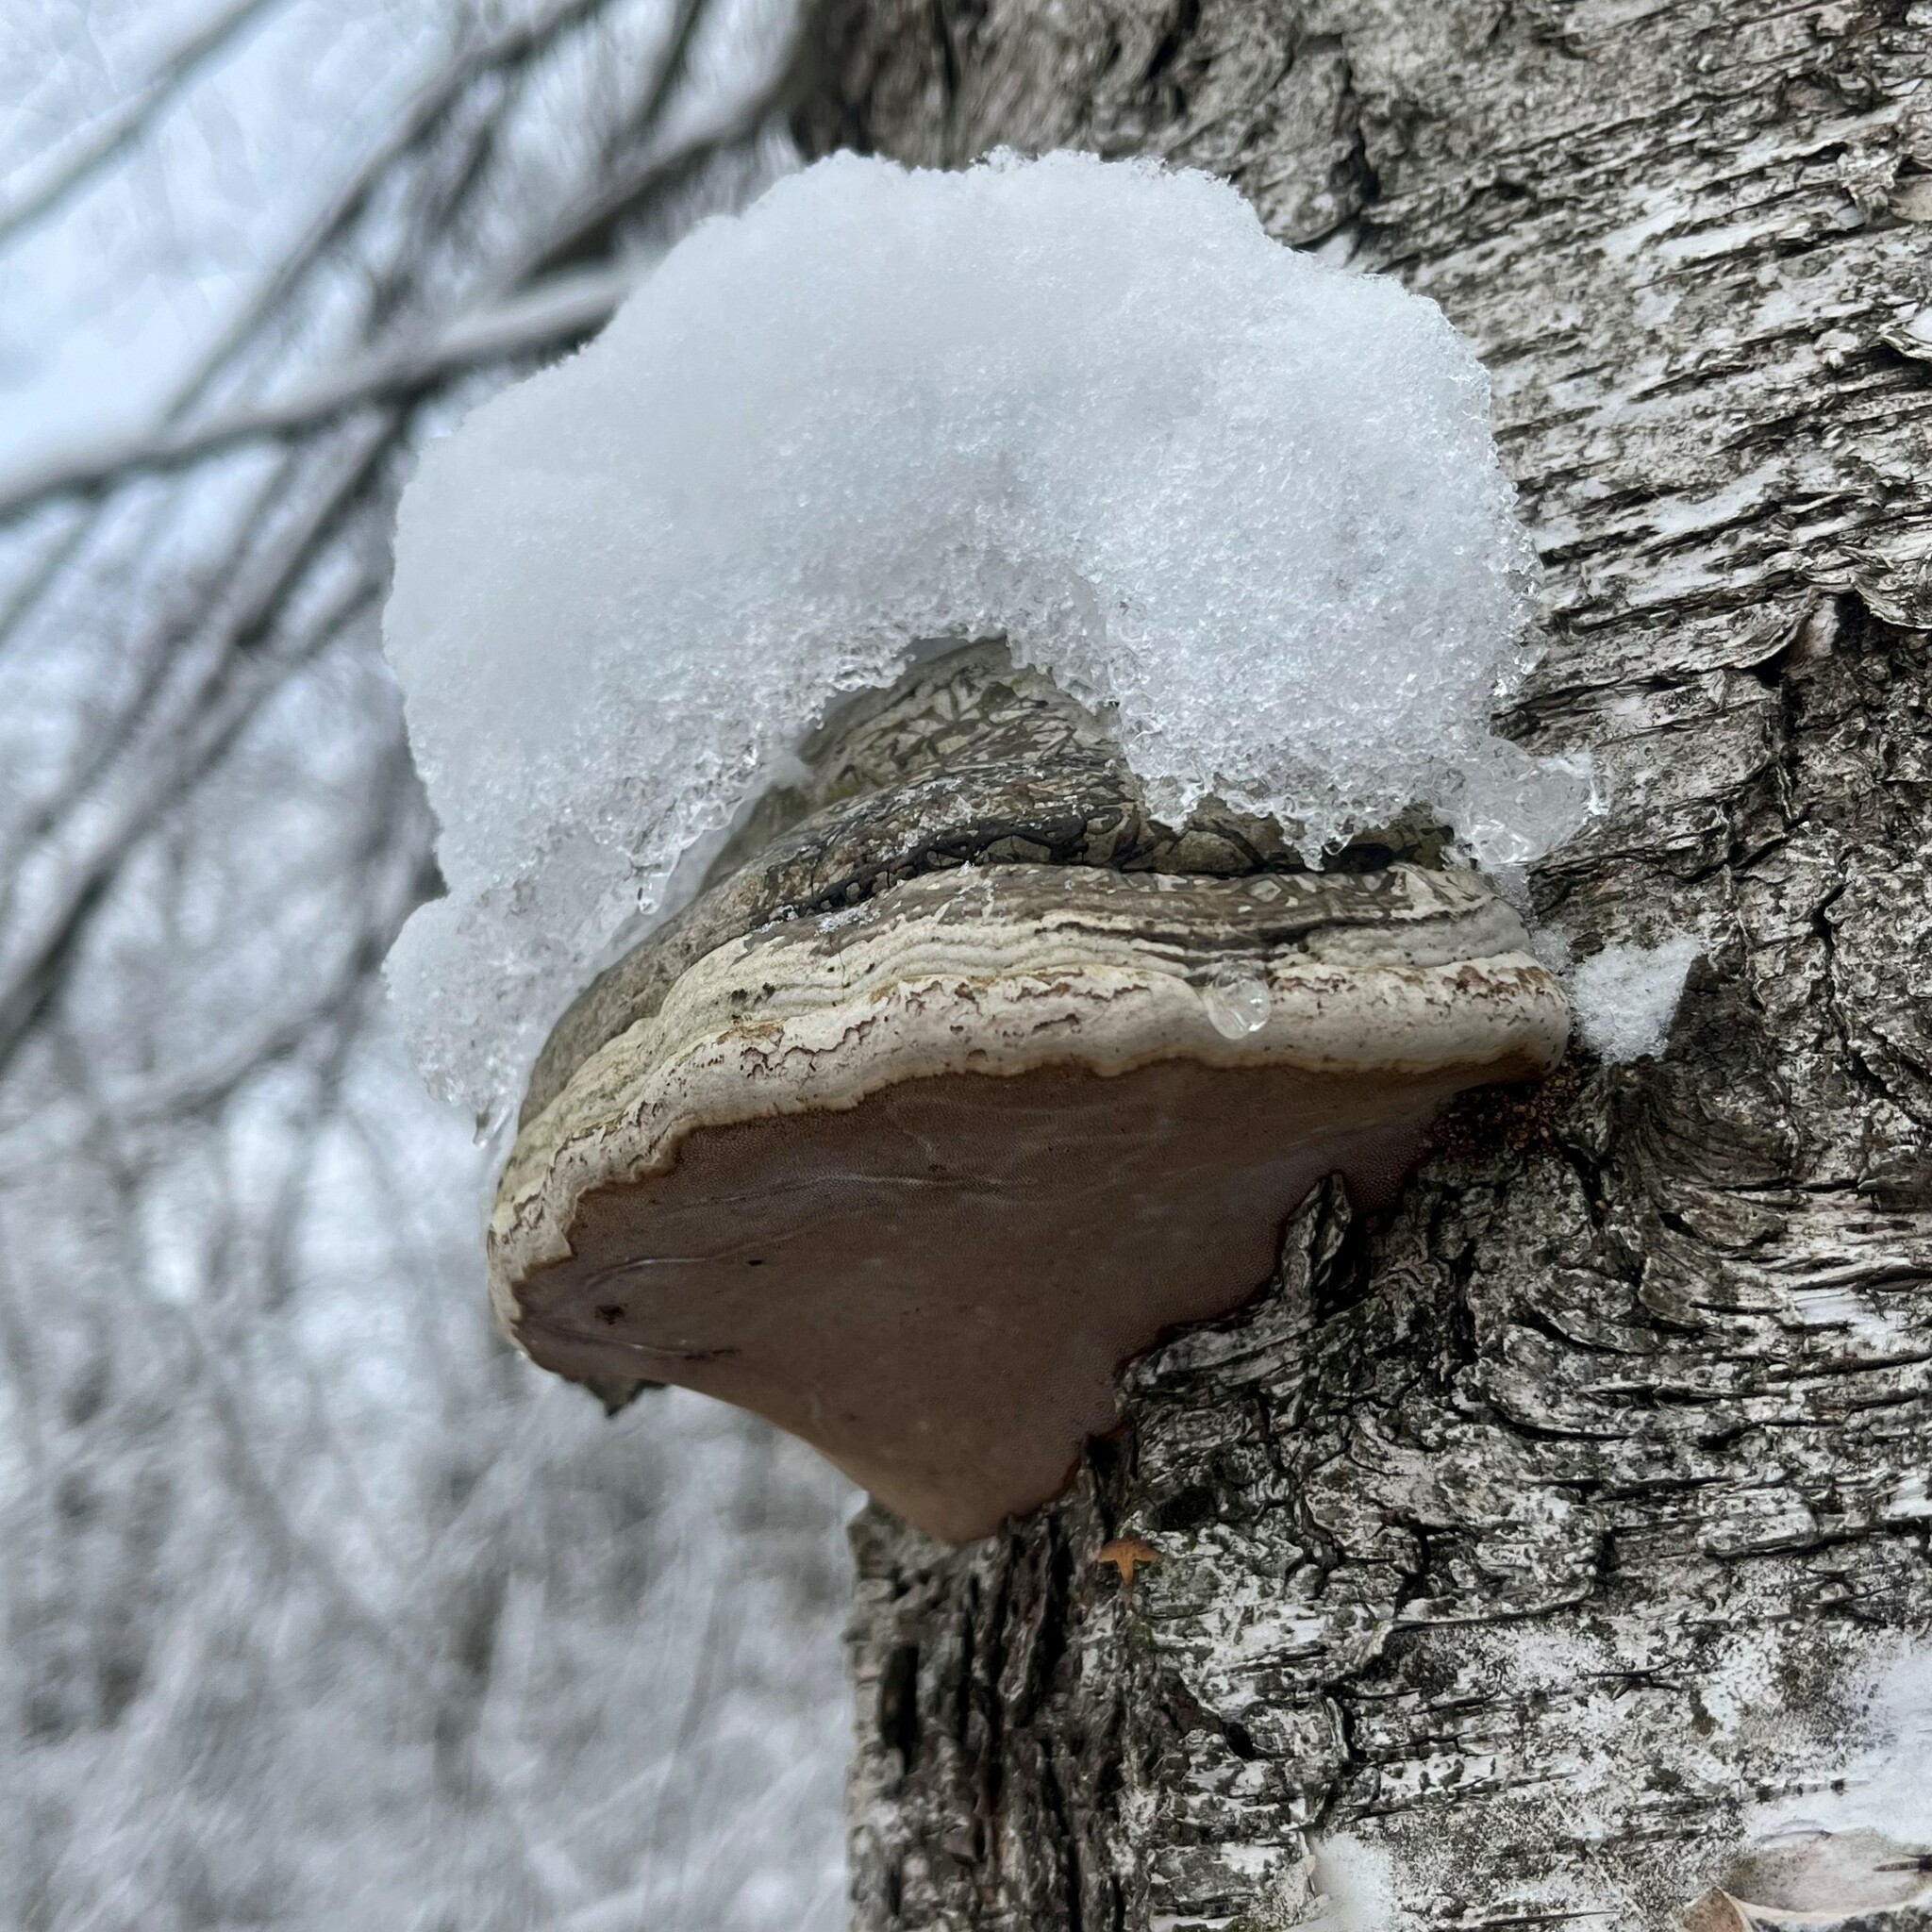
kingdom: Fungi
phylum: Basidiomycota
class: Agaricomycetes
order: Polyporales
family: Polyporaceae
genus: Fomes
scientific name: Fomes fomentarius
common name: Hoof fungus
